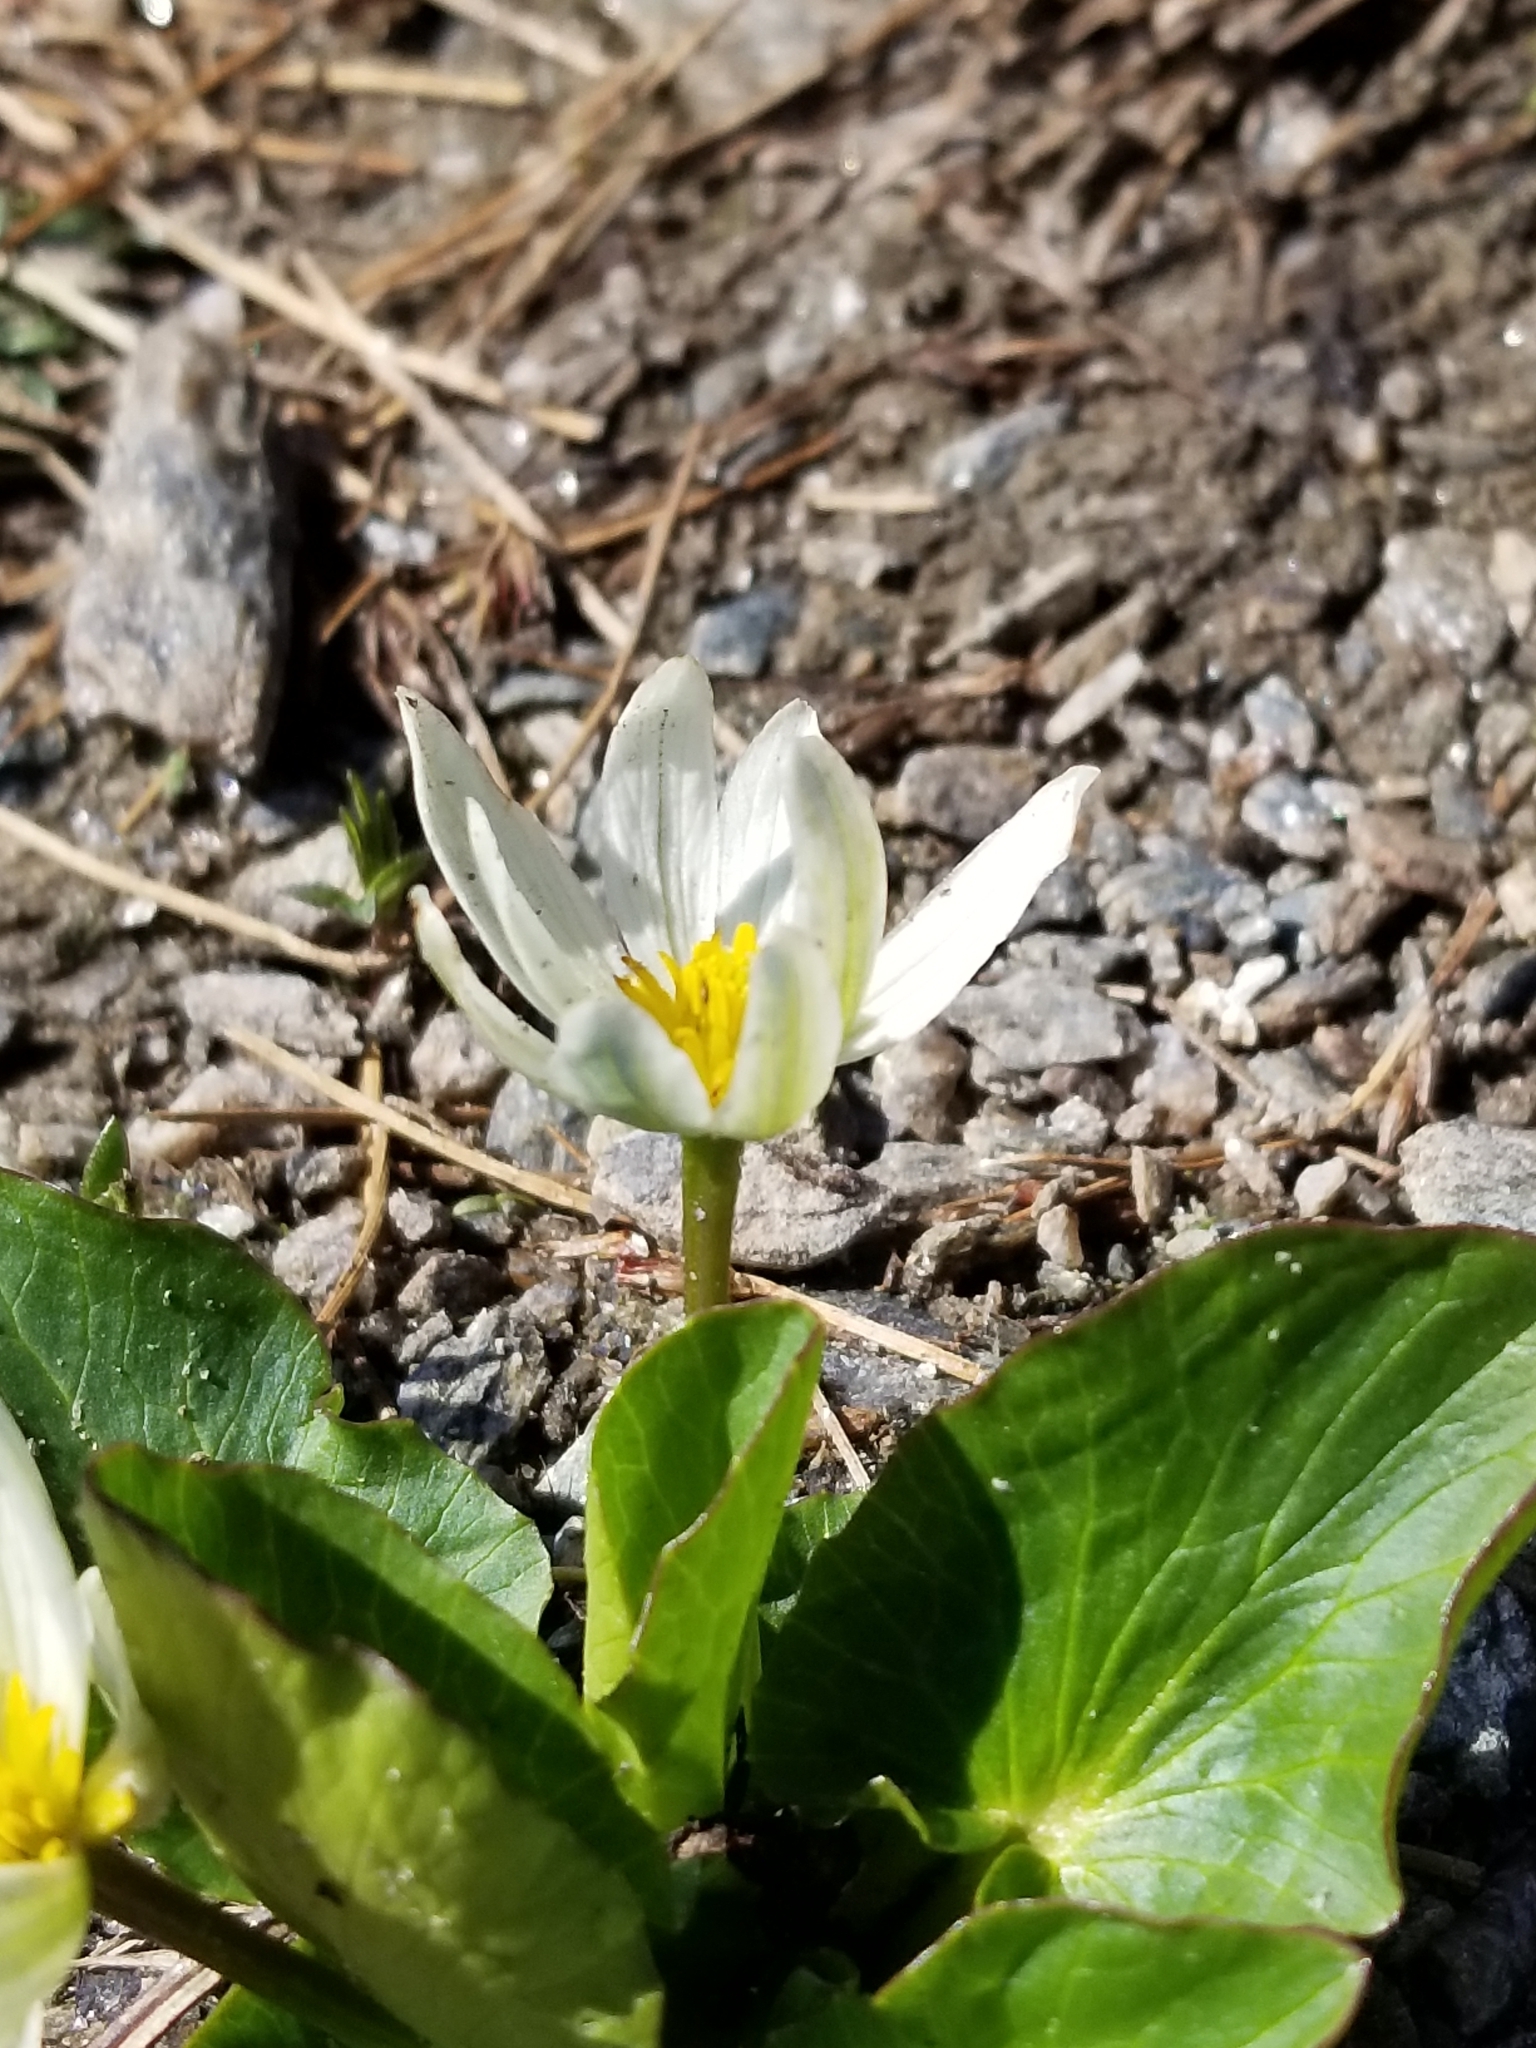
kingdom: Plantae
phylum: Tracheophyta
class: Magnoliopsida
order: Ranunculales
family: Ranunculaceae
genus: Caltha
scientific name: Caltha leptosepala
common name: Elkslip
